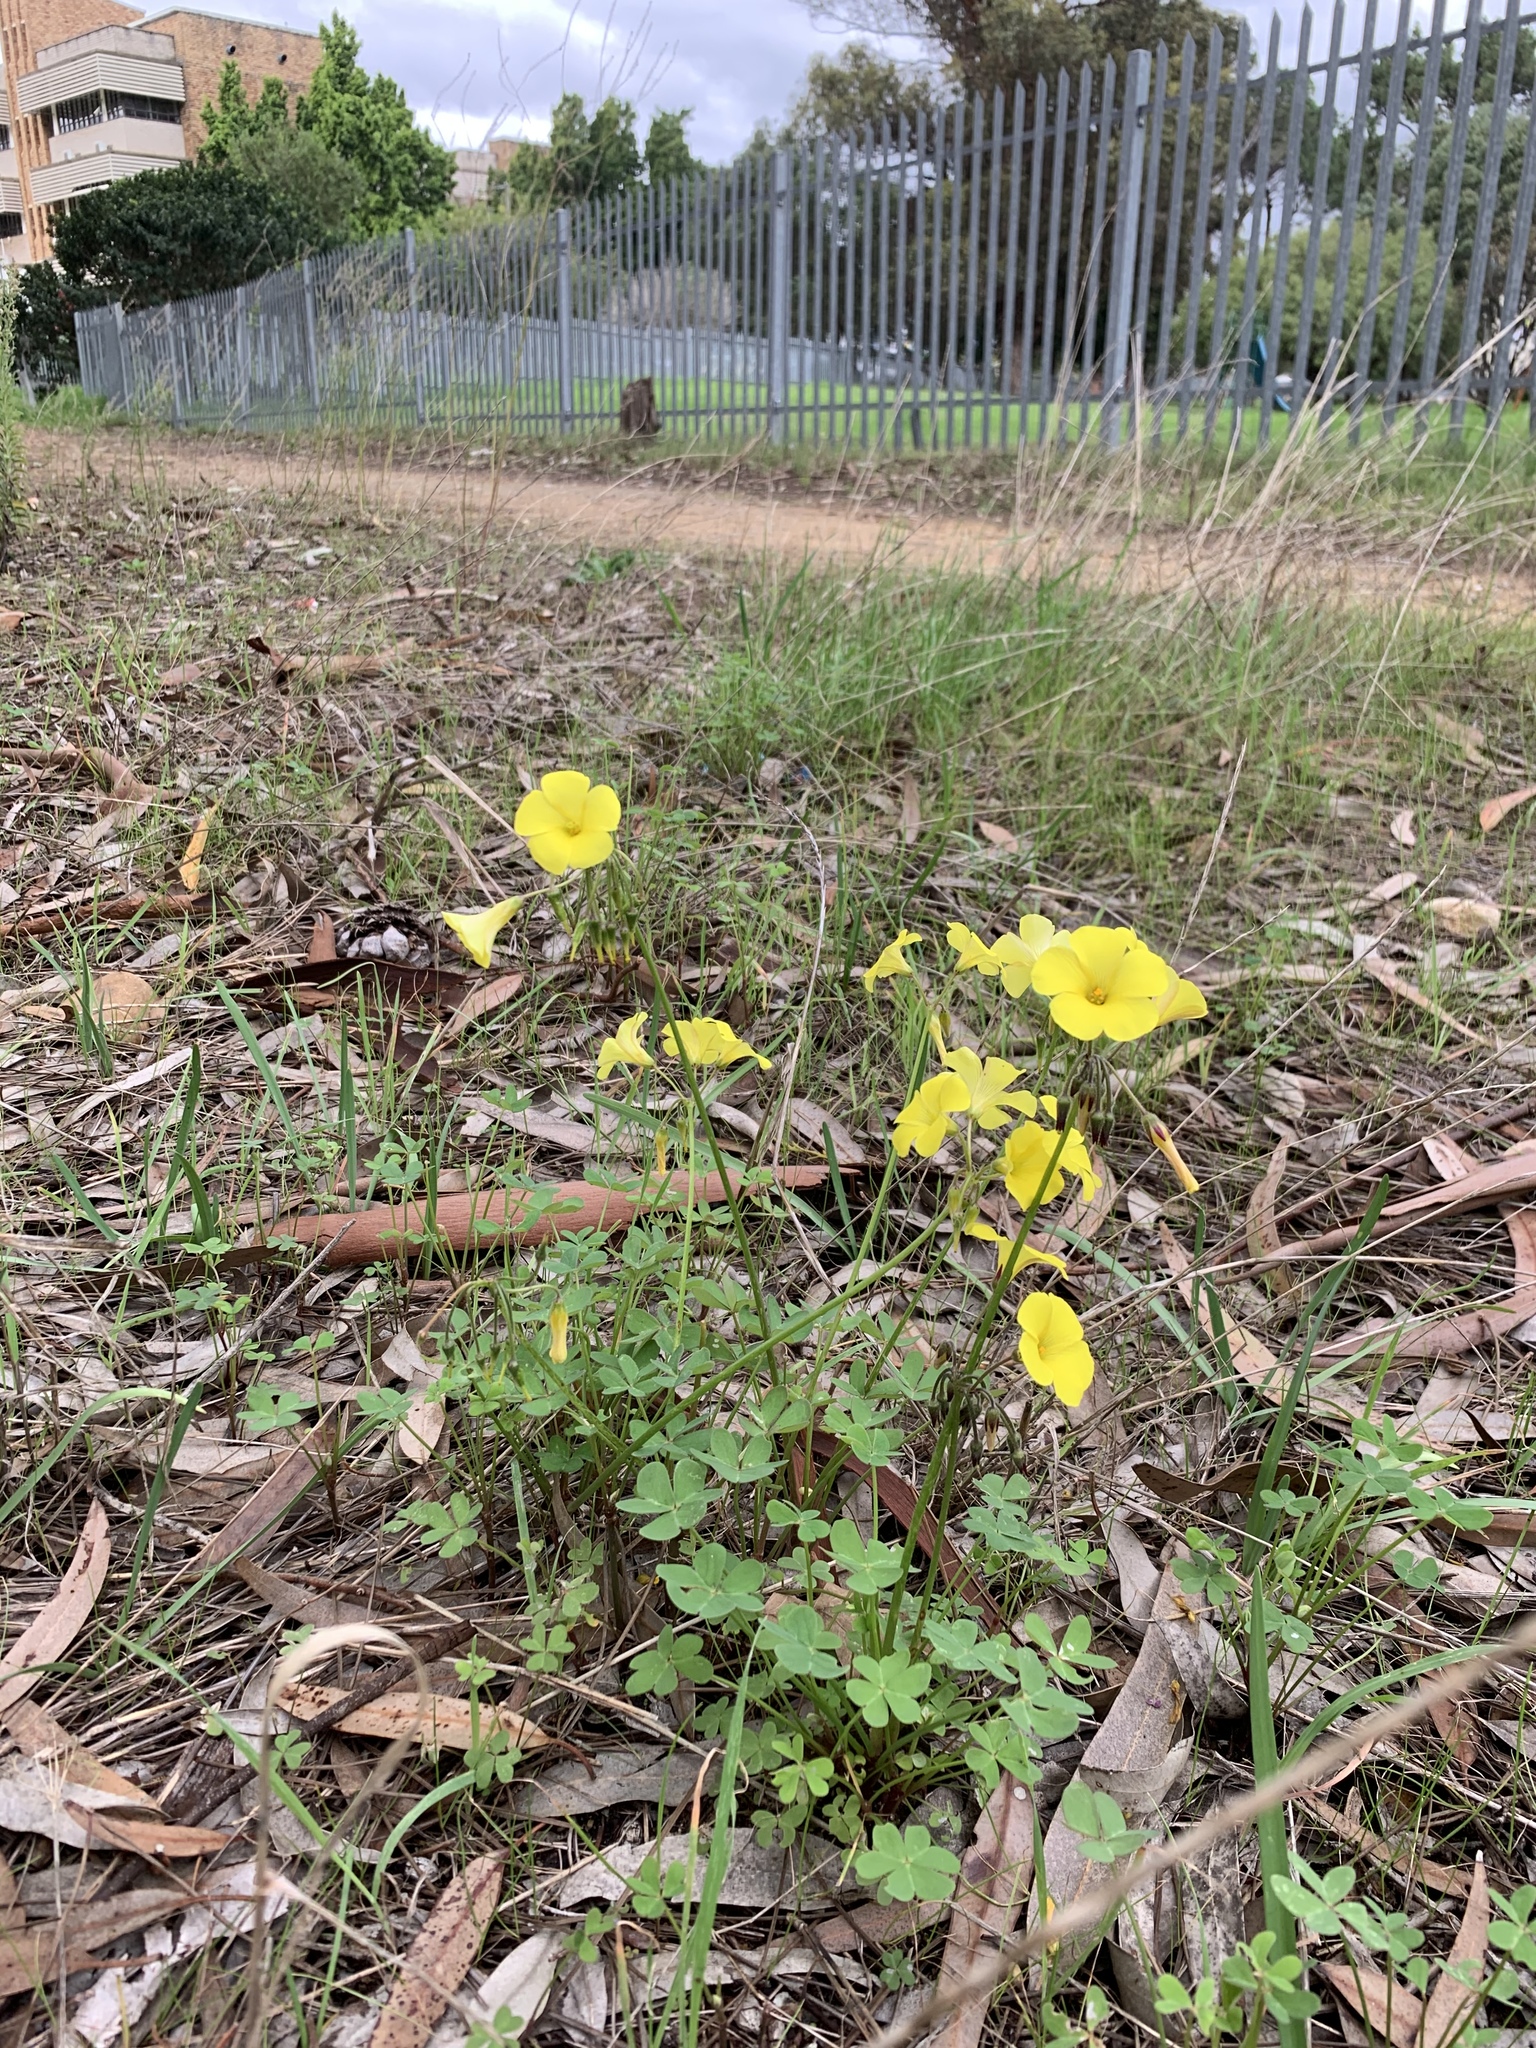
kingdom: Plantae
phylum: Tracheophyta
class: Magnoliopsida
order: Oxalidales
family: Oxalidaceae
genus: Oxalis
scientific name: Oxalis pes-caprae
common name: Bermuda-buttercup
